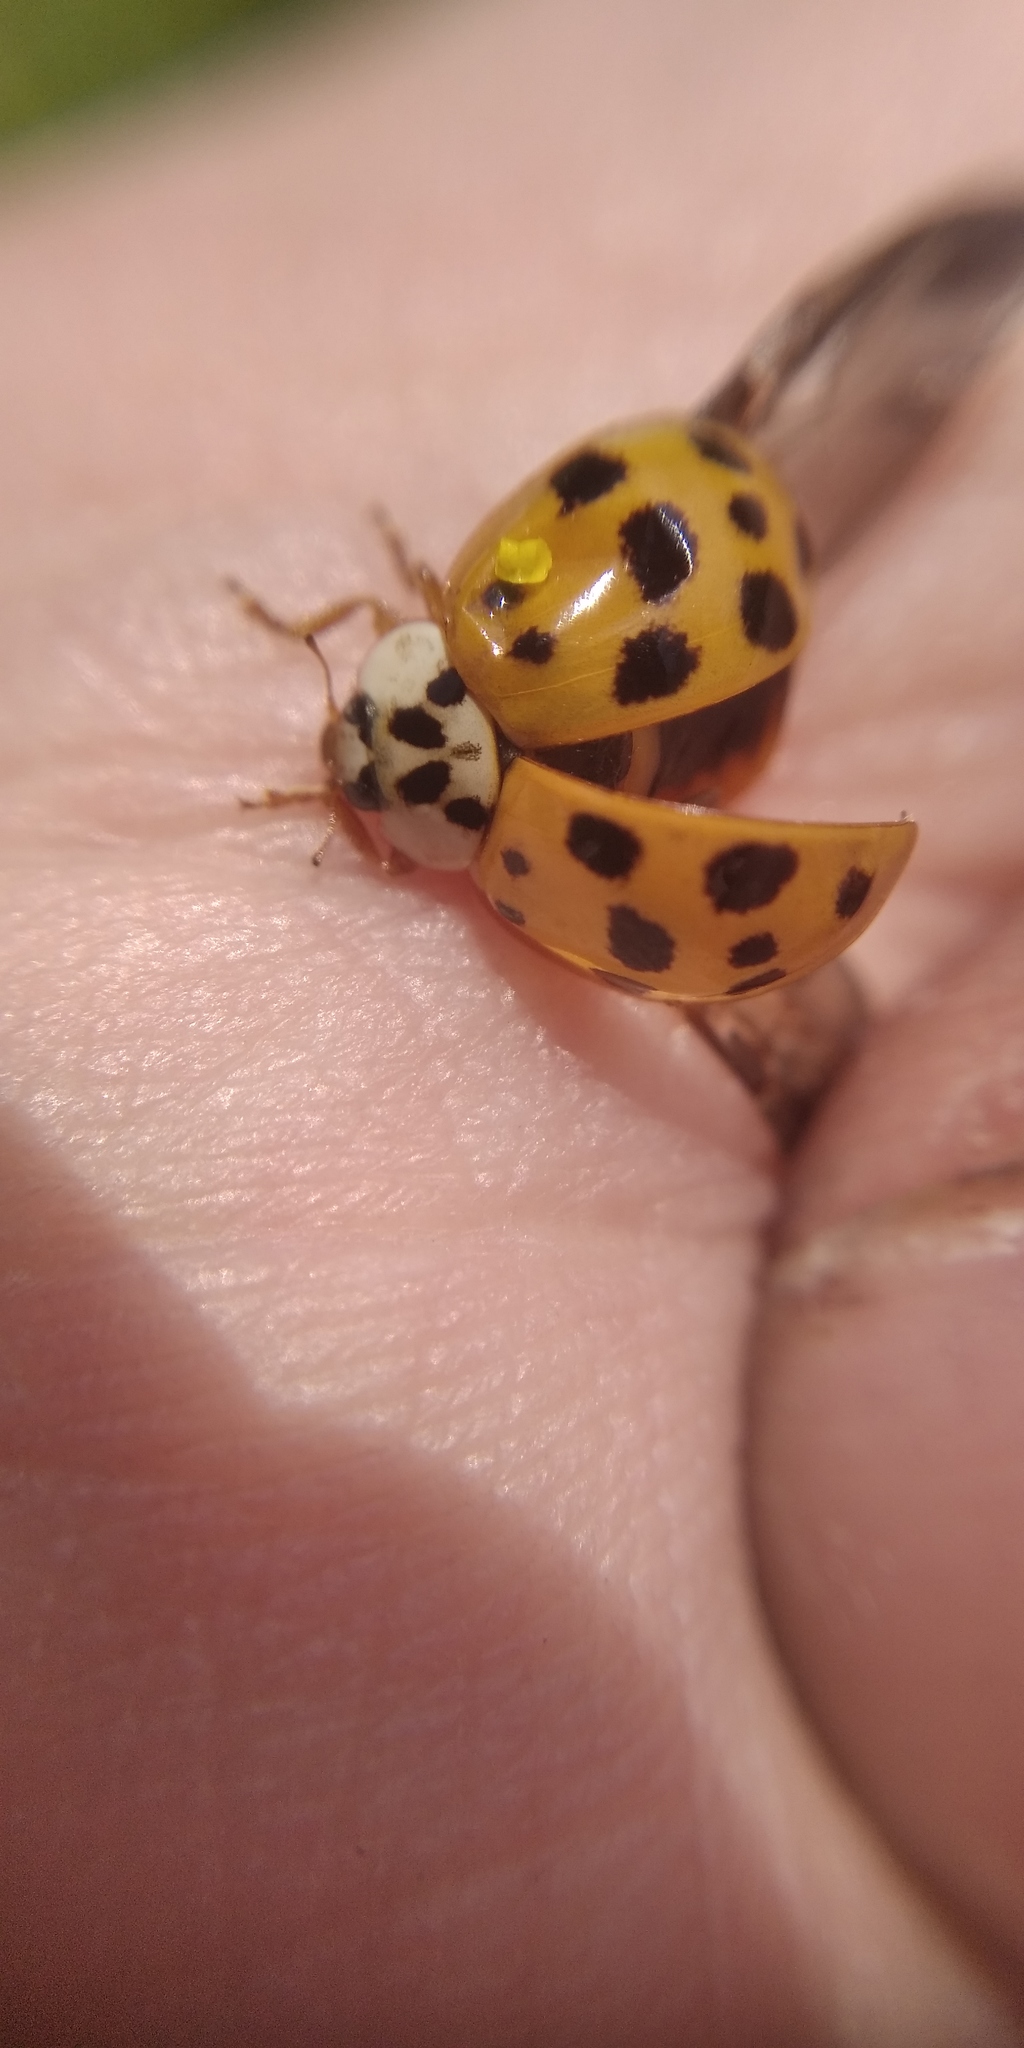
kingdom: Animalia
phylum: Arthropoda
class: Insecta
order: Coleoptera
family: Coccinellidae
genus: Harmonia
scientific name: Harmonia axyridis
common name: Harlequin ladybird
